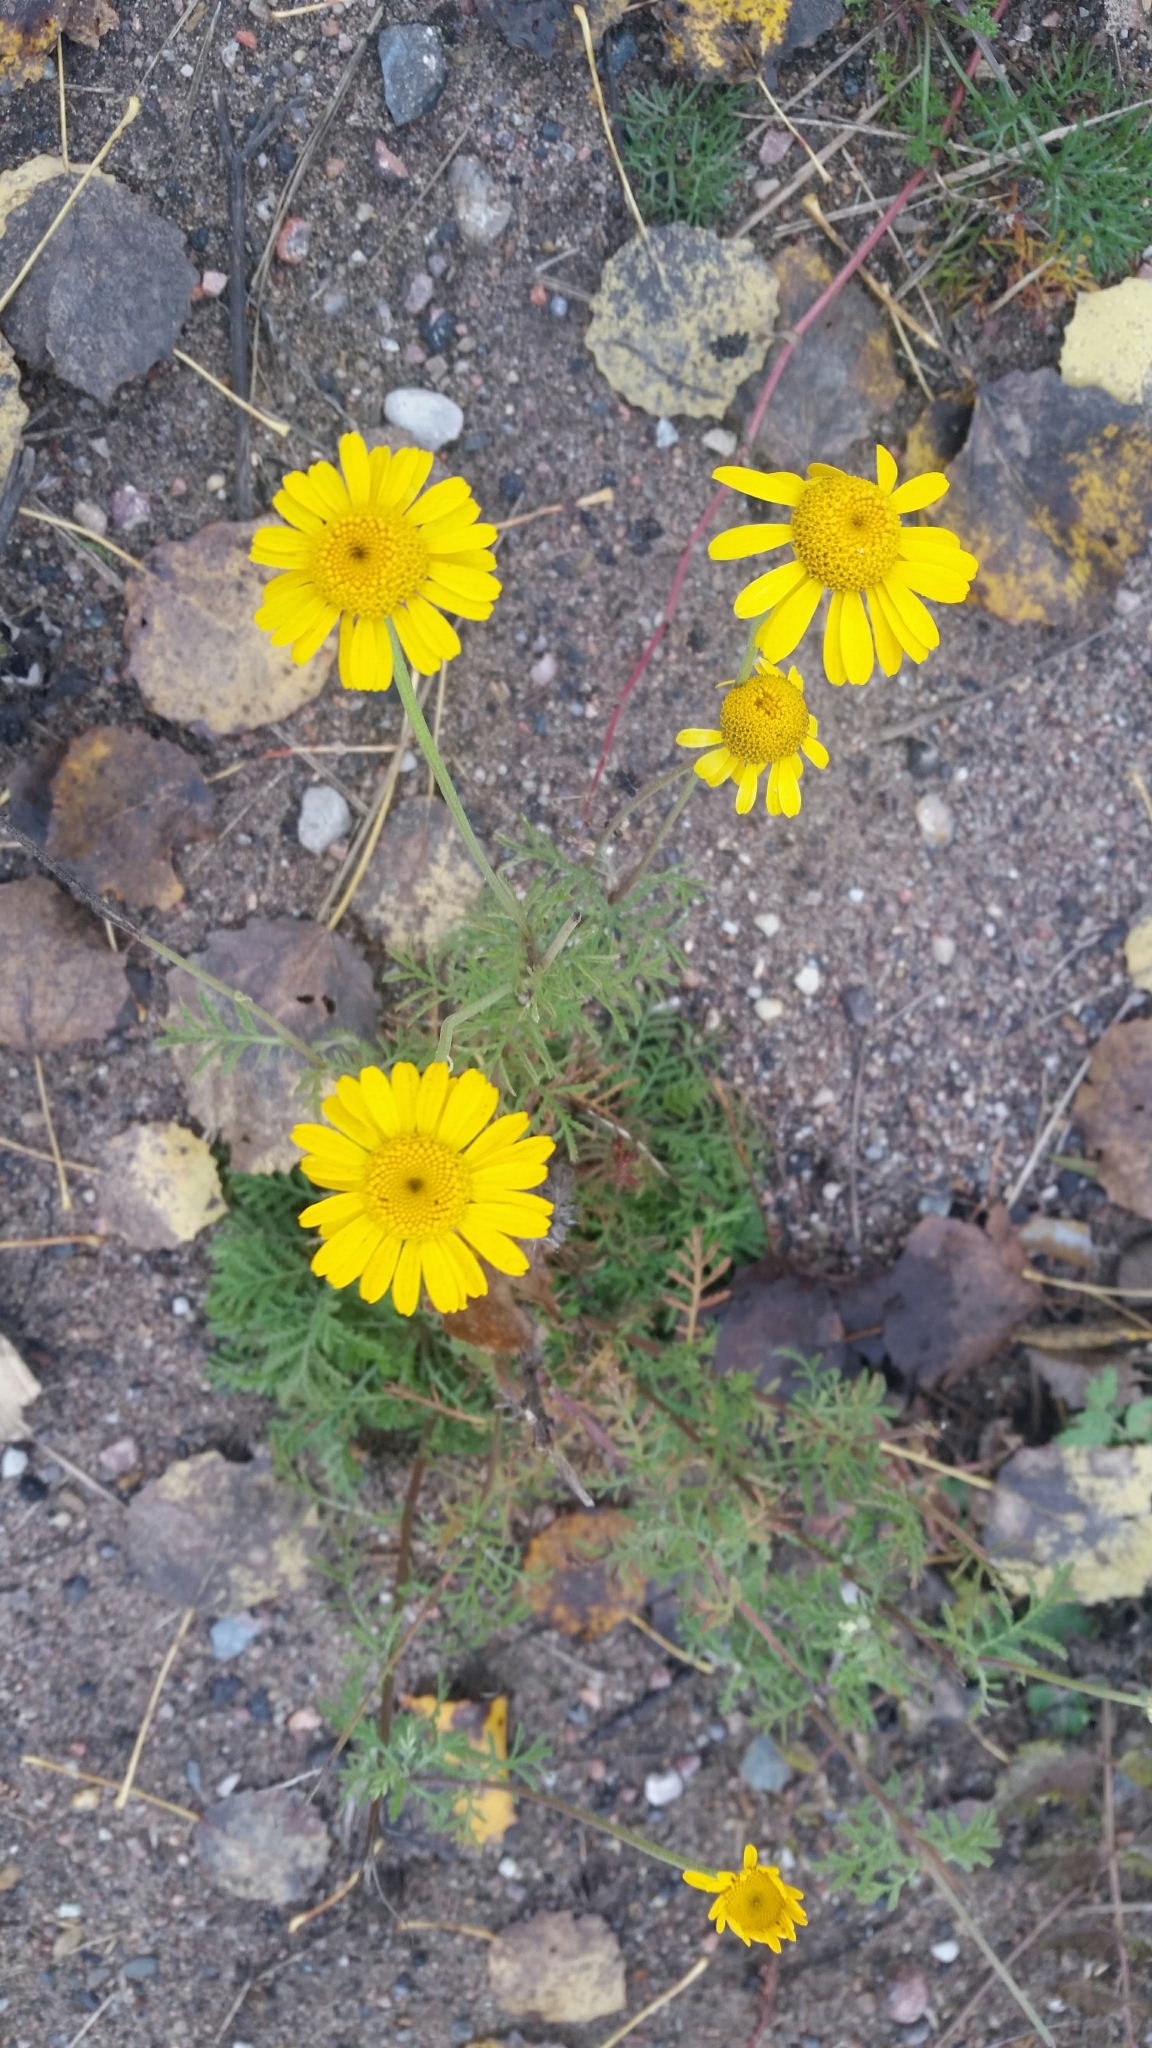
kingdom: Plantae
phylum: Tracheophyta
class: Magnoliopsida
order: Asterales
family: Asteraceae
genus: Cota
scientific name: Cota tinctoria
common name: Golden chamomile
